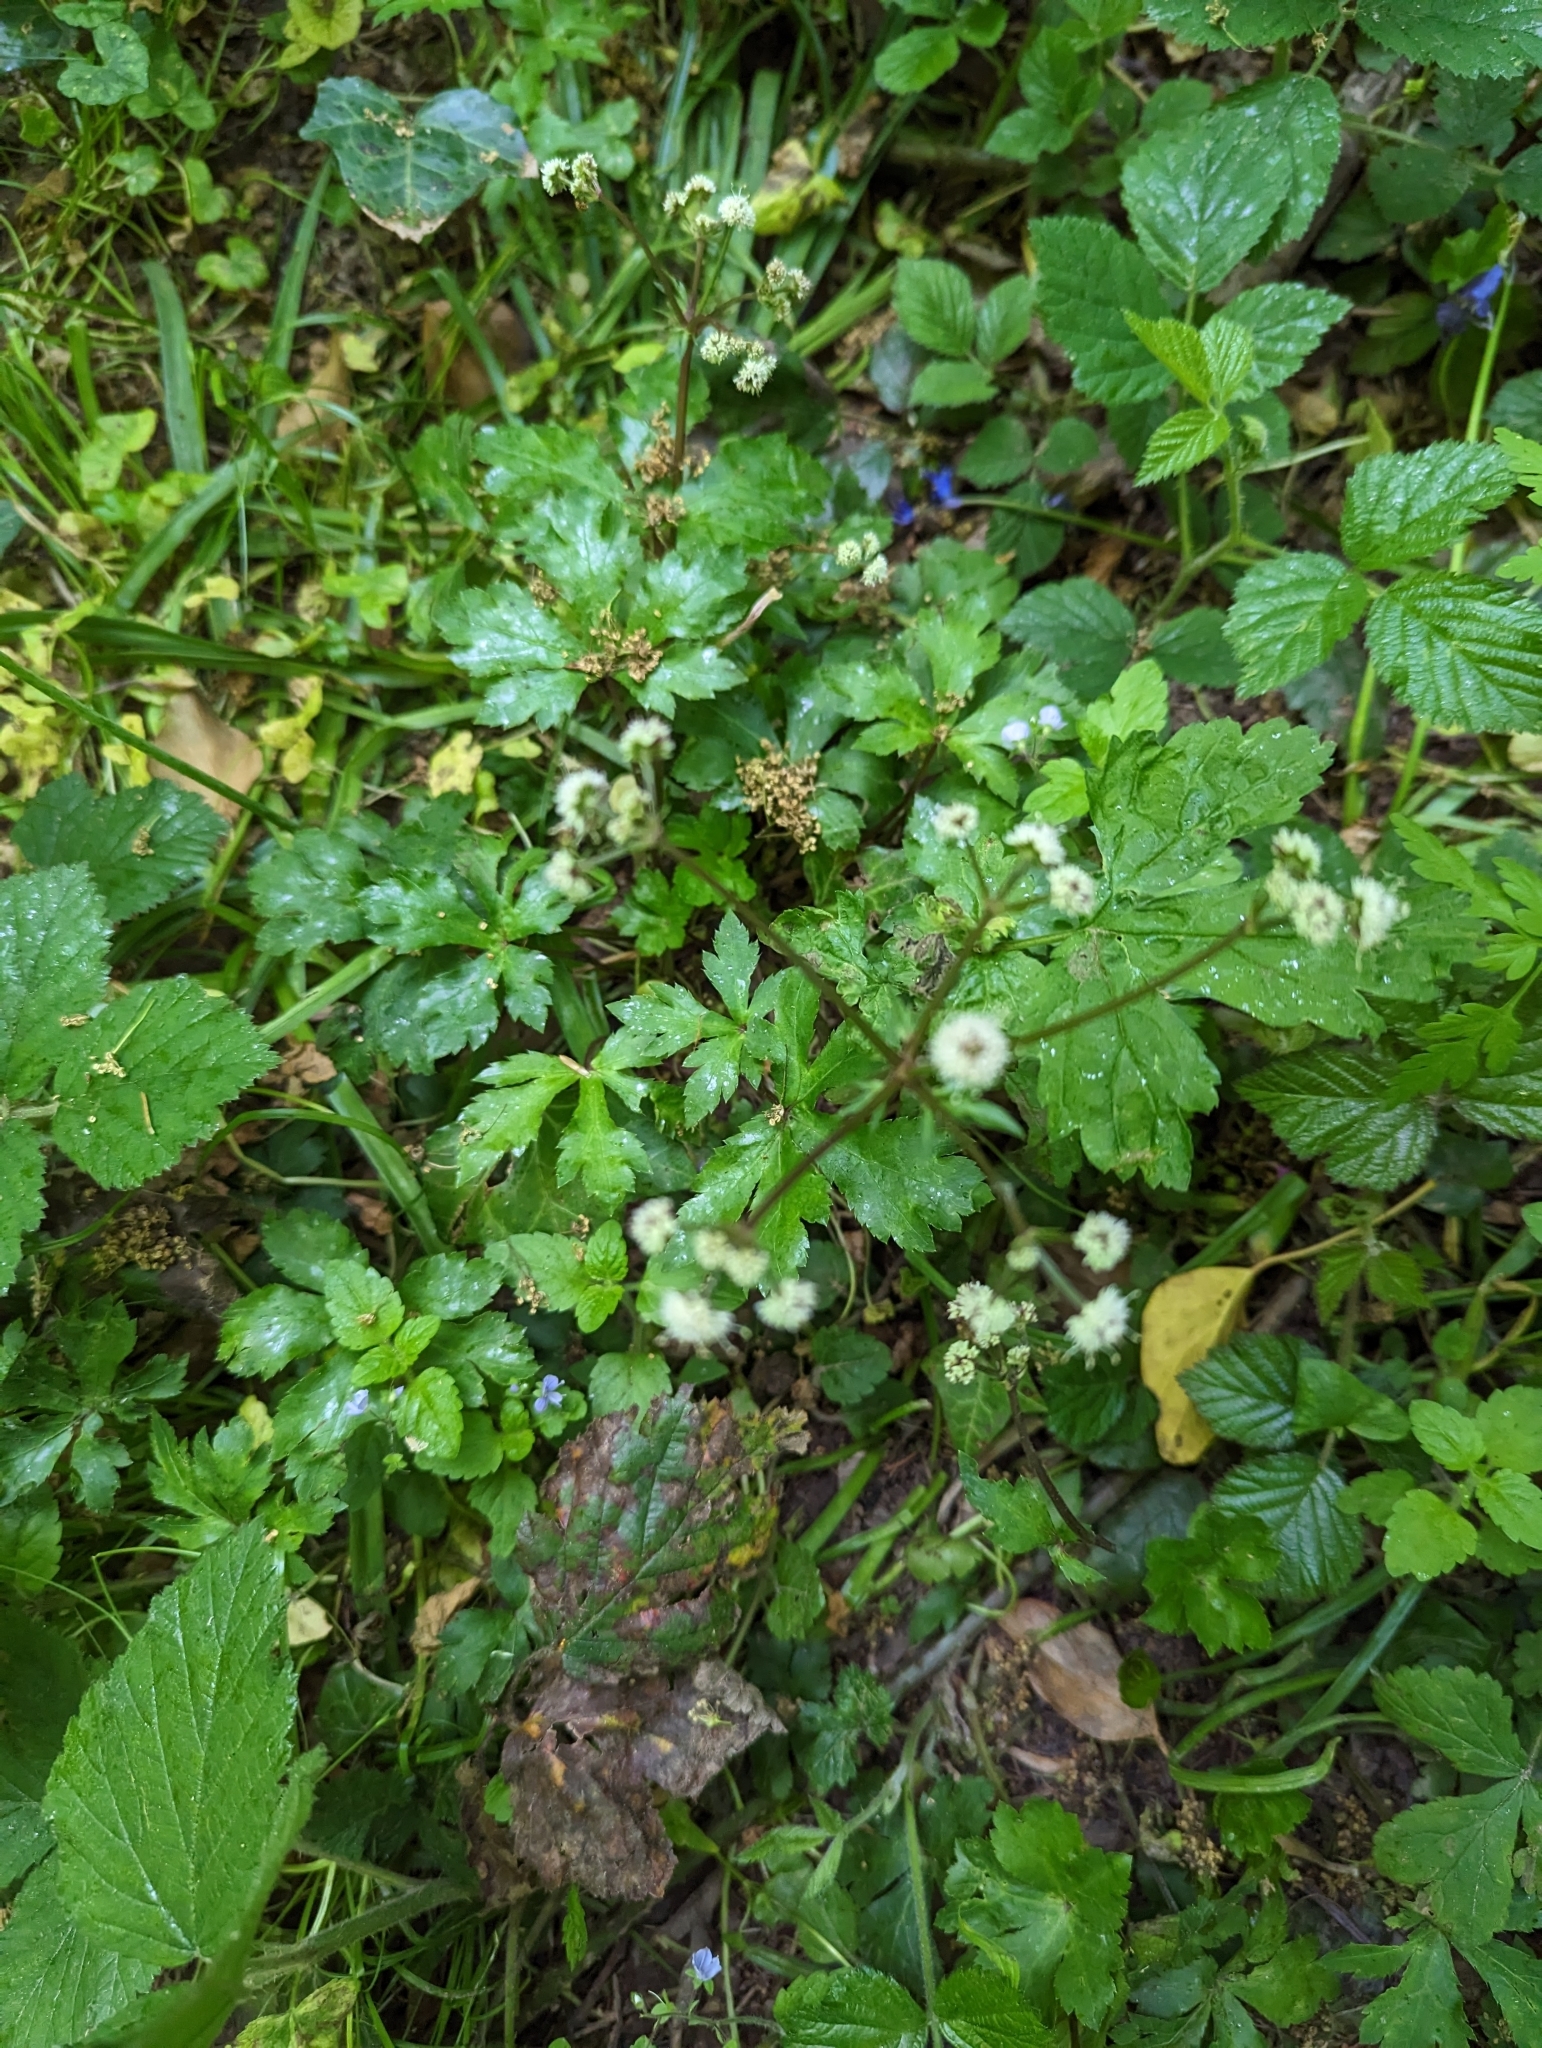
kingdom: Plantae
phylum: Tracheophyta
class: Magnoliopsida
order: Apiales
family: Apiaceae
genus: Sanicula
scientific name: Sanicula europaea
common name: Sanicle
